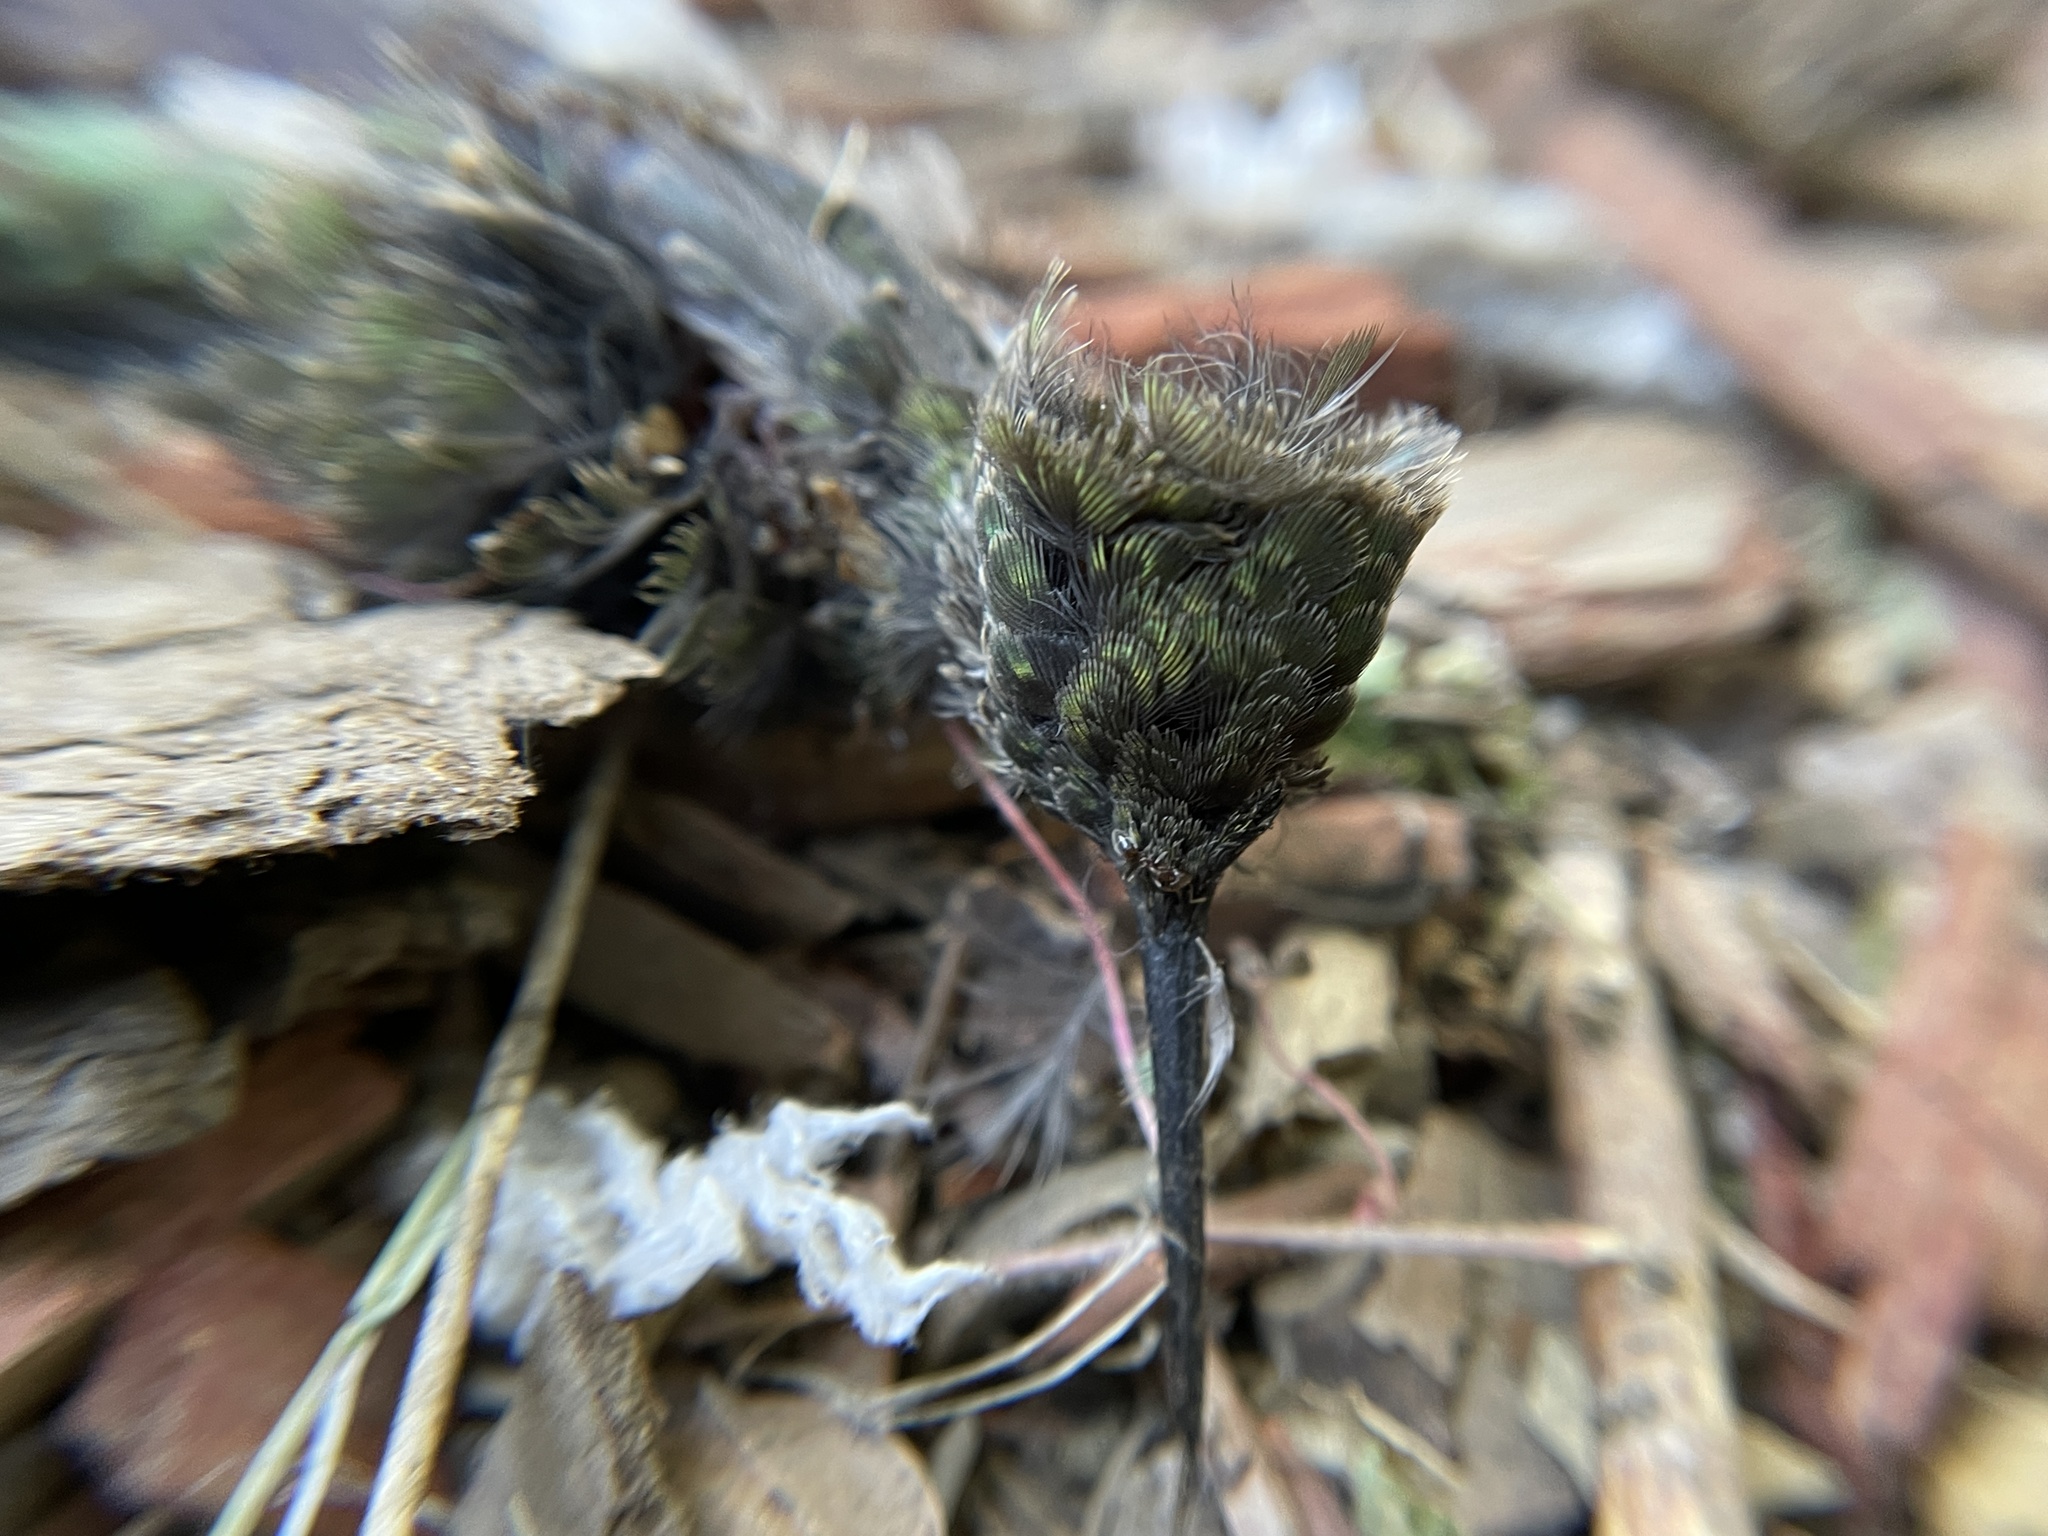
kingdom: Animalia
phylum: Chordata
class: Aves
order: Apodiformes
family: Trochilidae
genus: Calypte
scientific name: Calypte anna
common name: Anna's hummingbird
